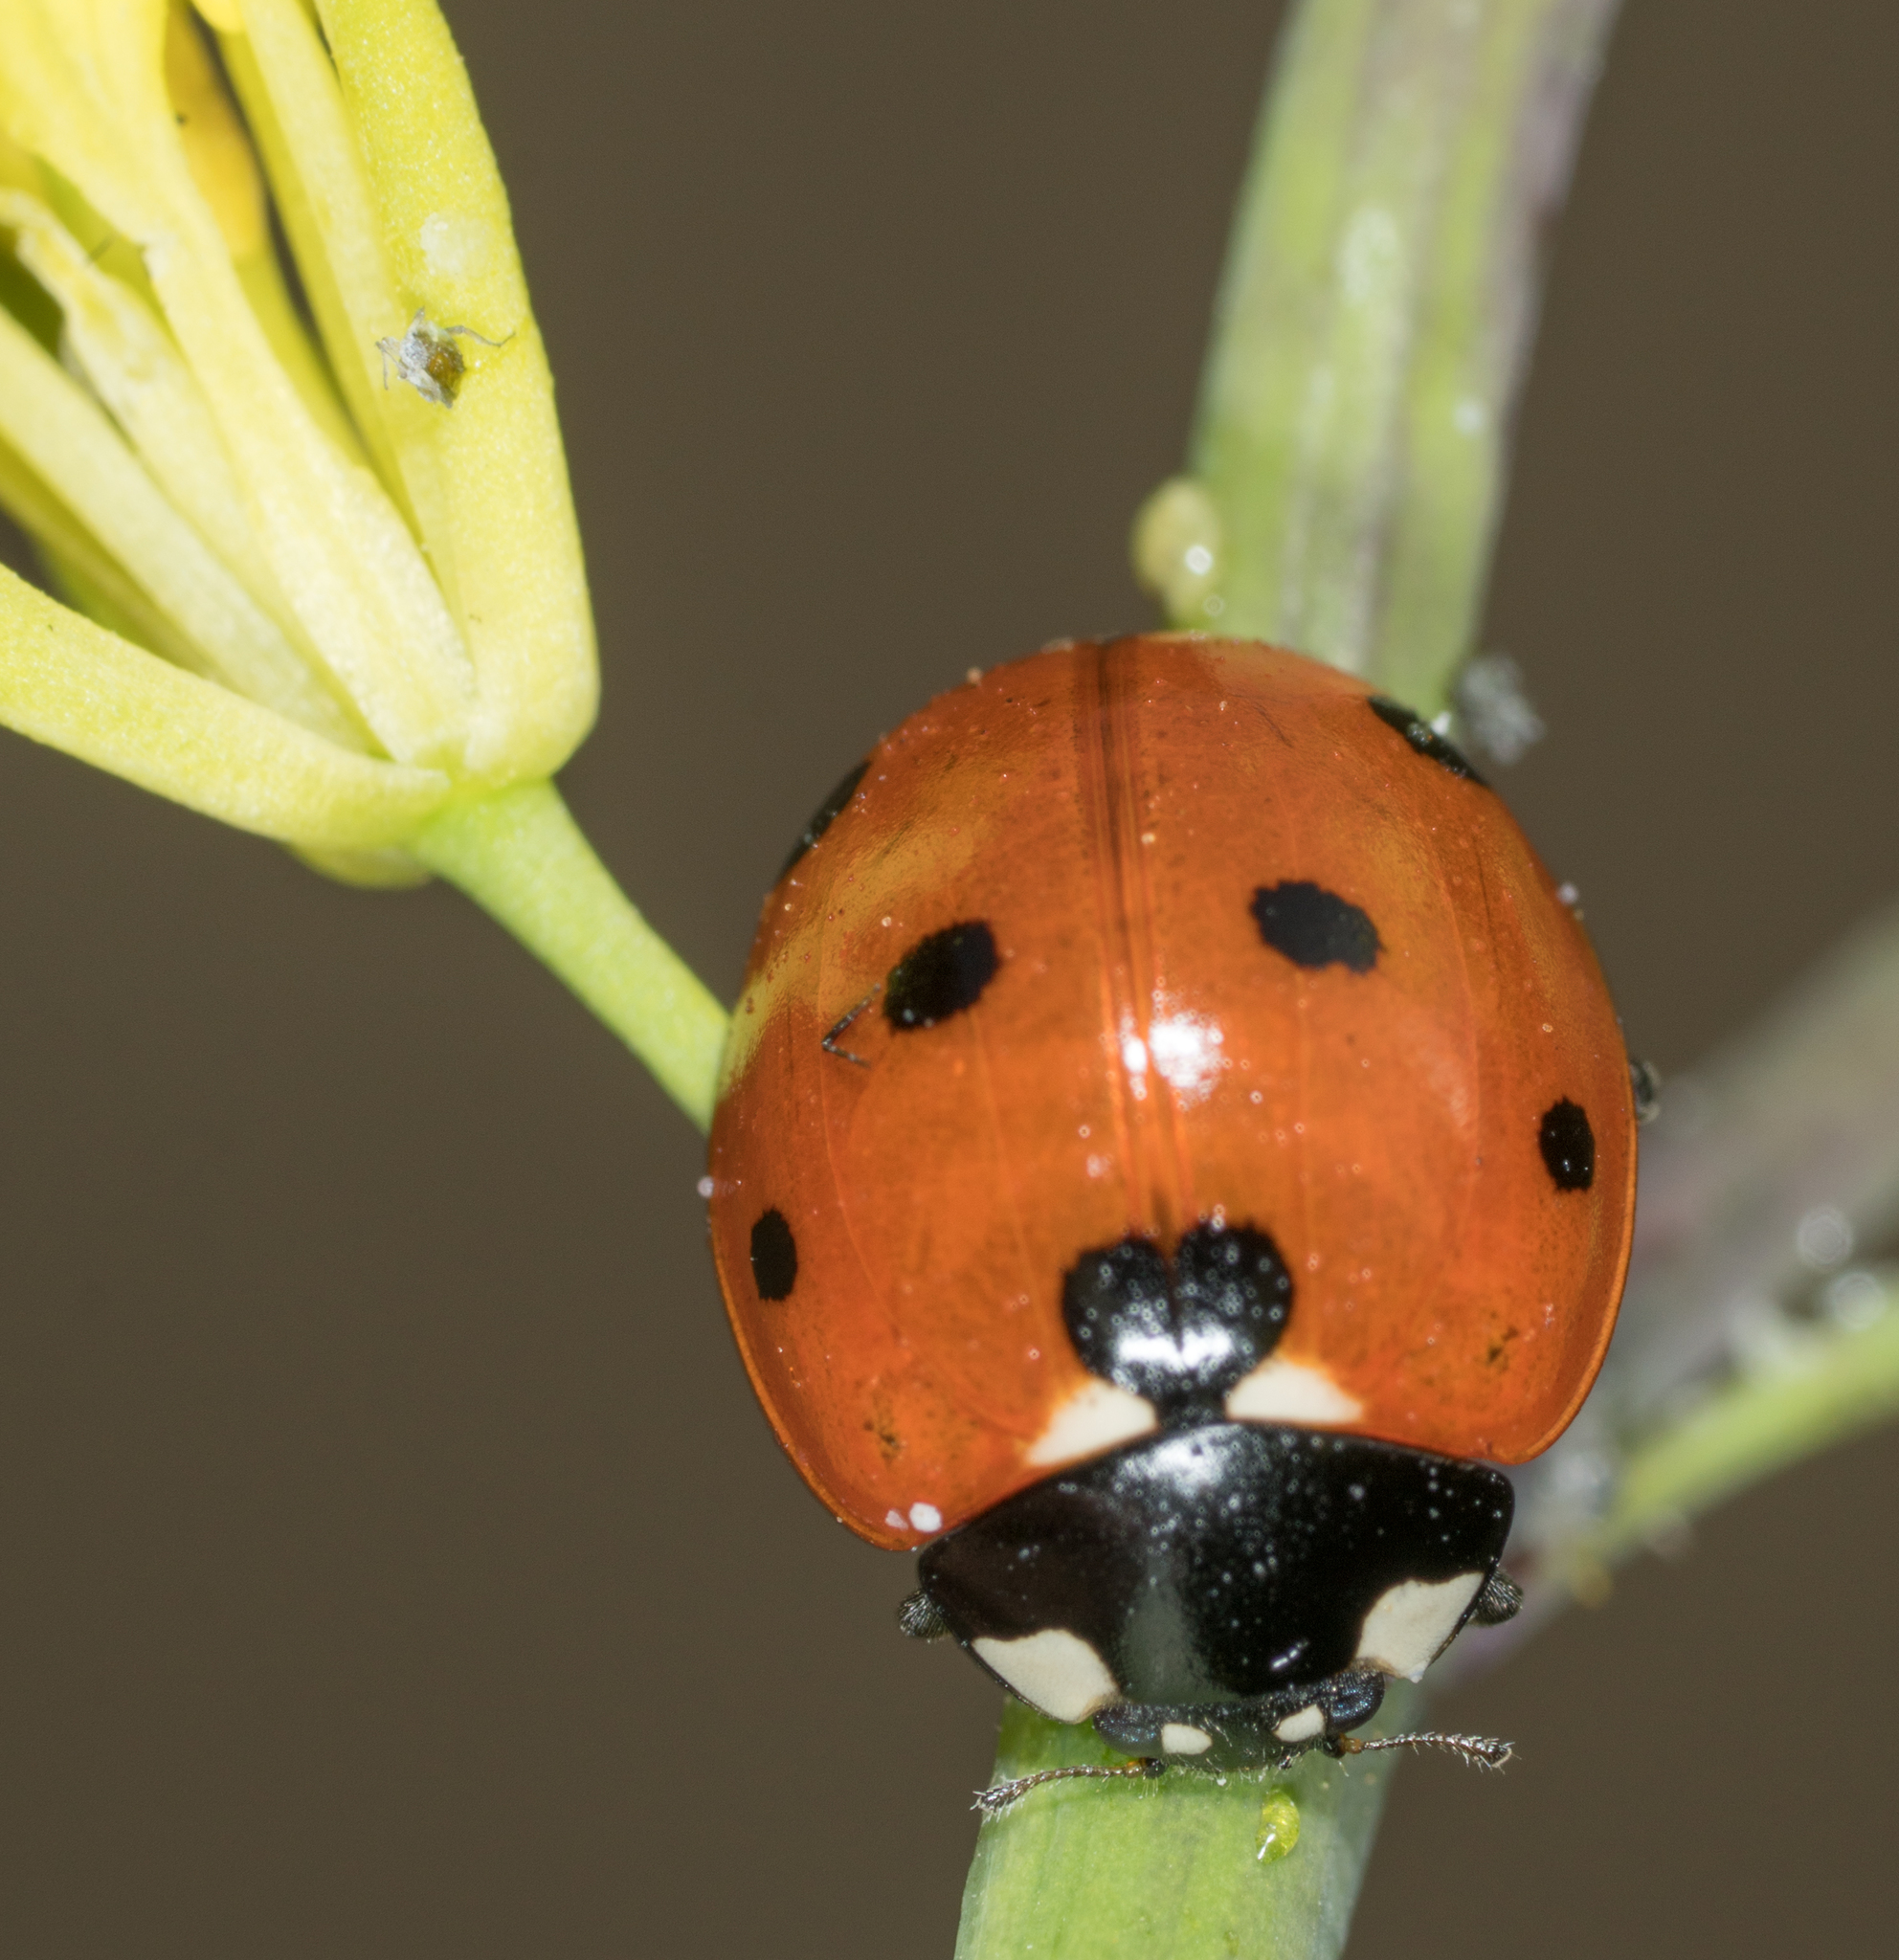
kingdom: Animalia
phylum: Arthropoda
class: Insecta
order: Coleoptera
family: Coccinellidae
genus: Coccinella
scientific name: Coccinella septempunctata
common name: Sevenspotted lady beetle
